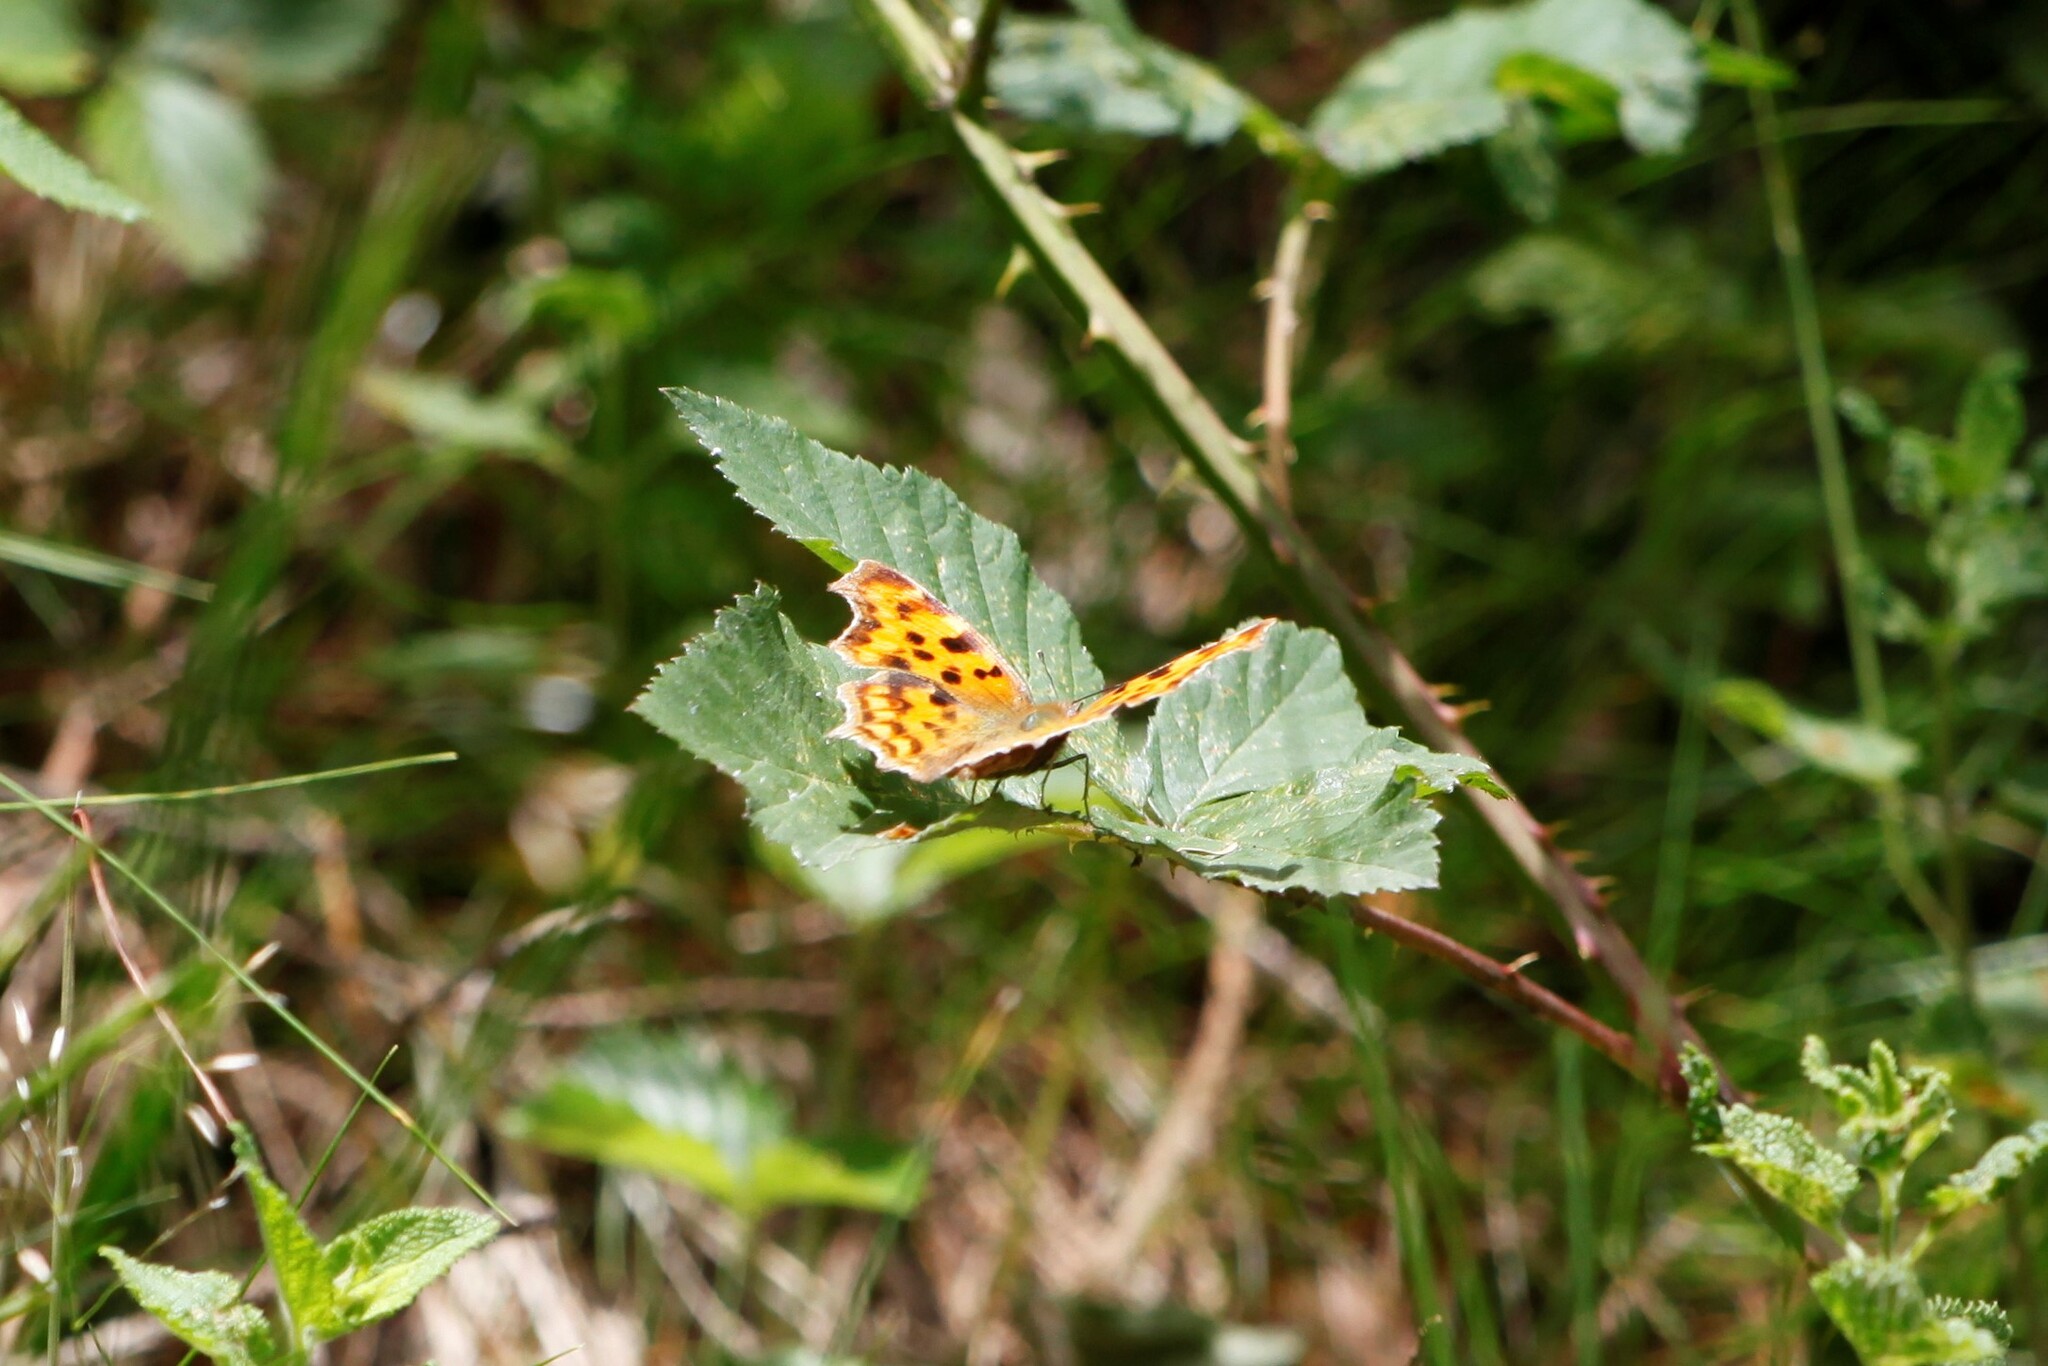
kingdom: Animalia
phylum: Arthropoda
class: Insecta
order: Lepidoptera
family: Nymphalidae
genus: Polygonia
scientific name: Polygonia c-album
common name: Comma
